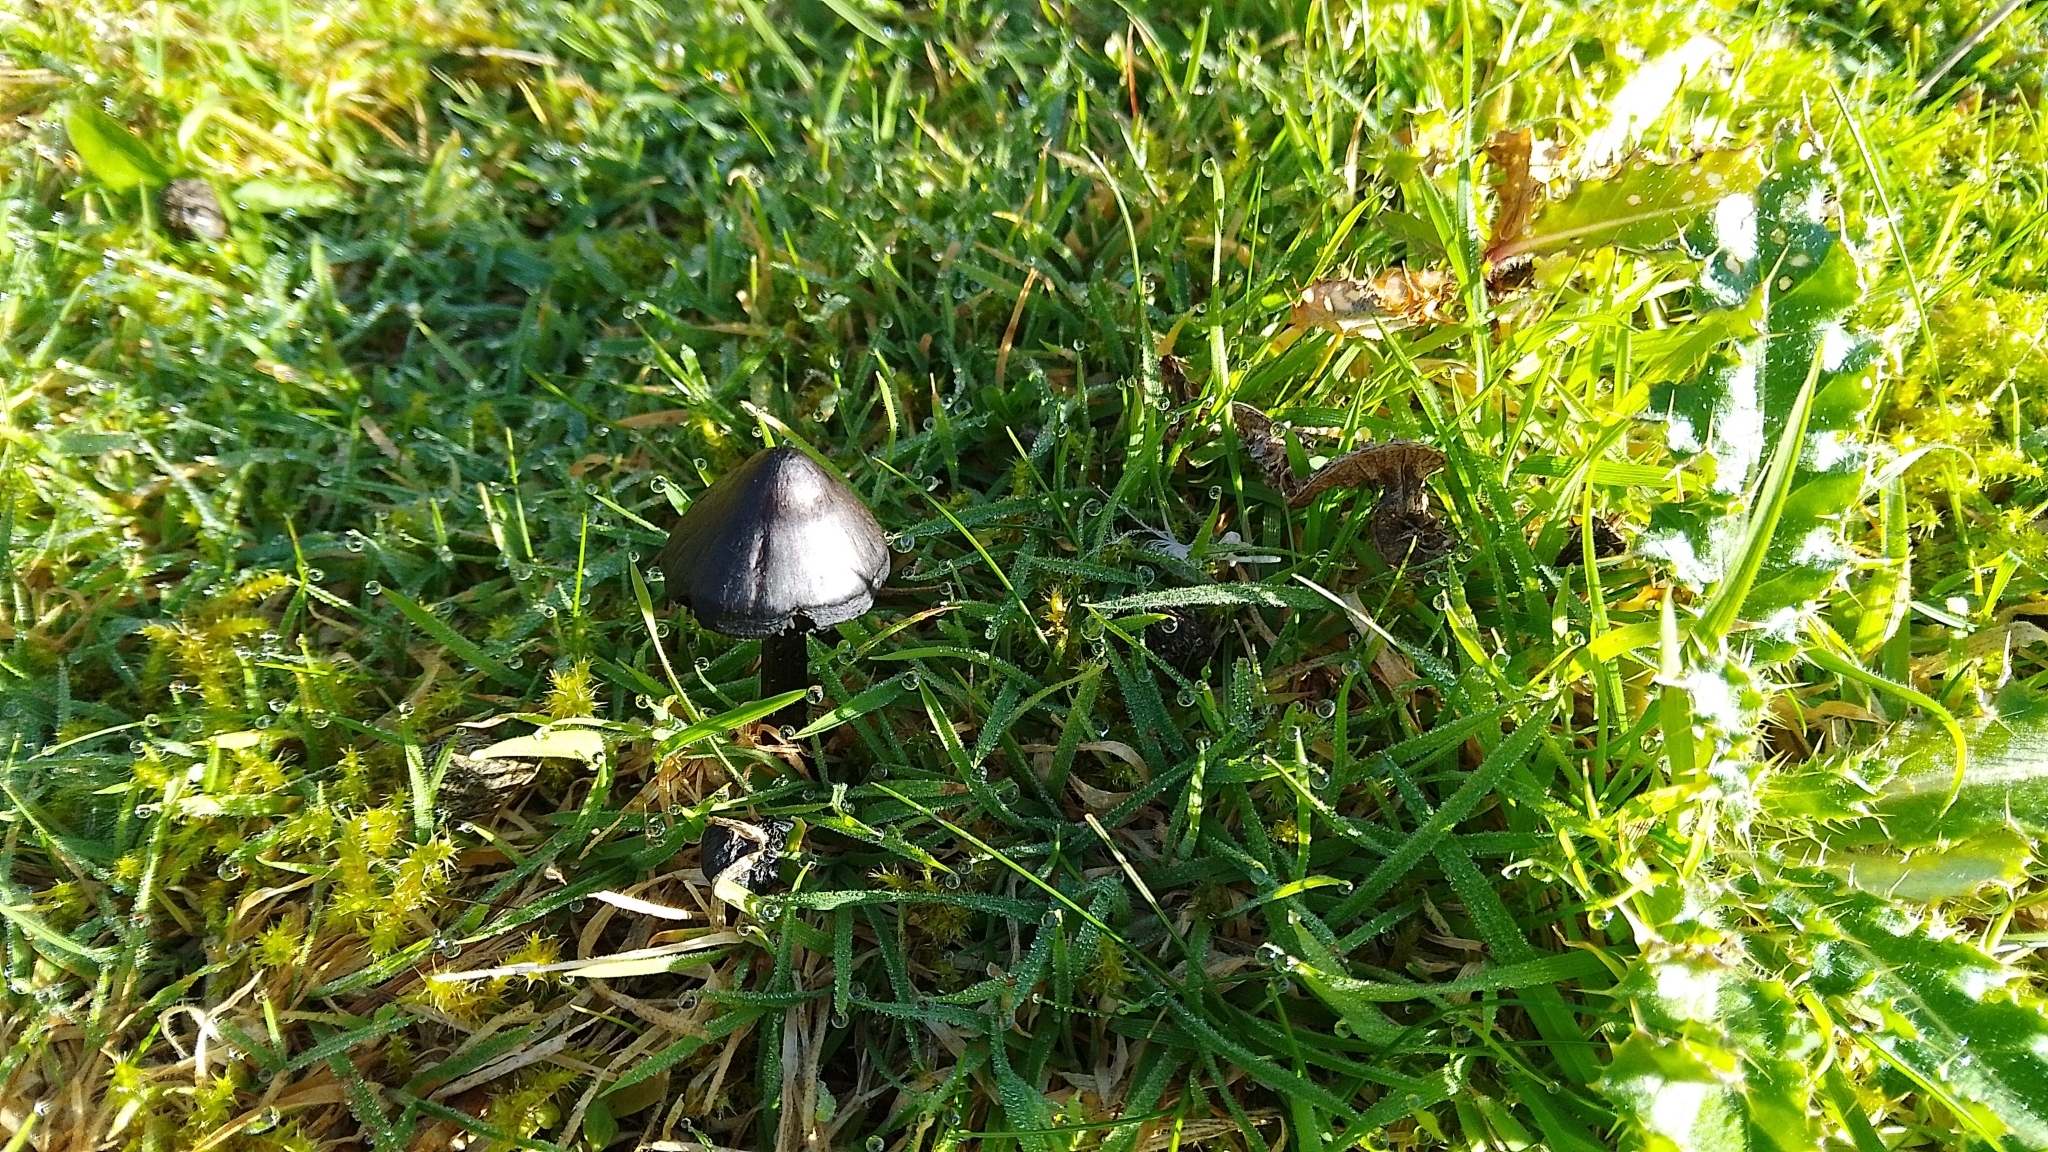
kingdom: Fungi
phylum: Basidiomycota
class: Agaricomycetes
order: Agaricales
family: Hygrophoraceae
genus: Hygrocybe
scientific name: Hygrocybe conica
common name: Blackening wax-cap
